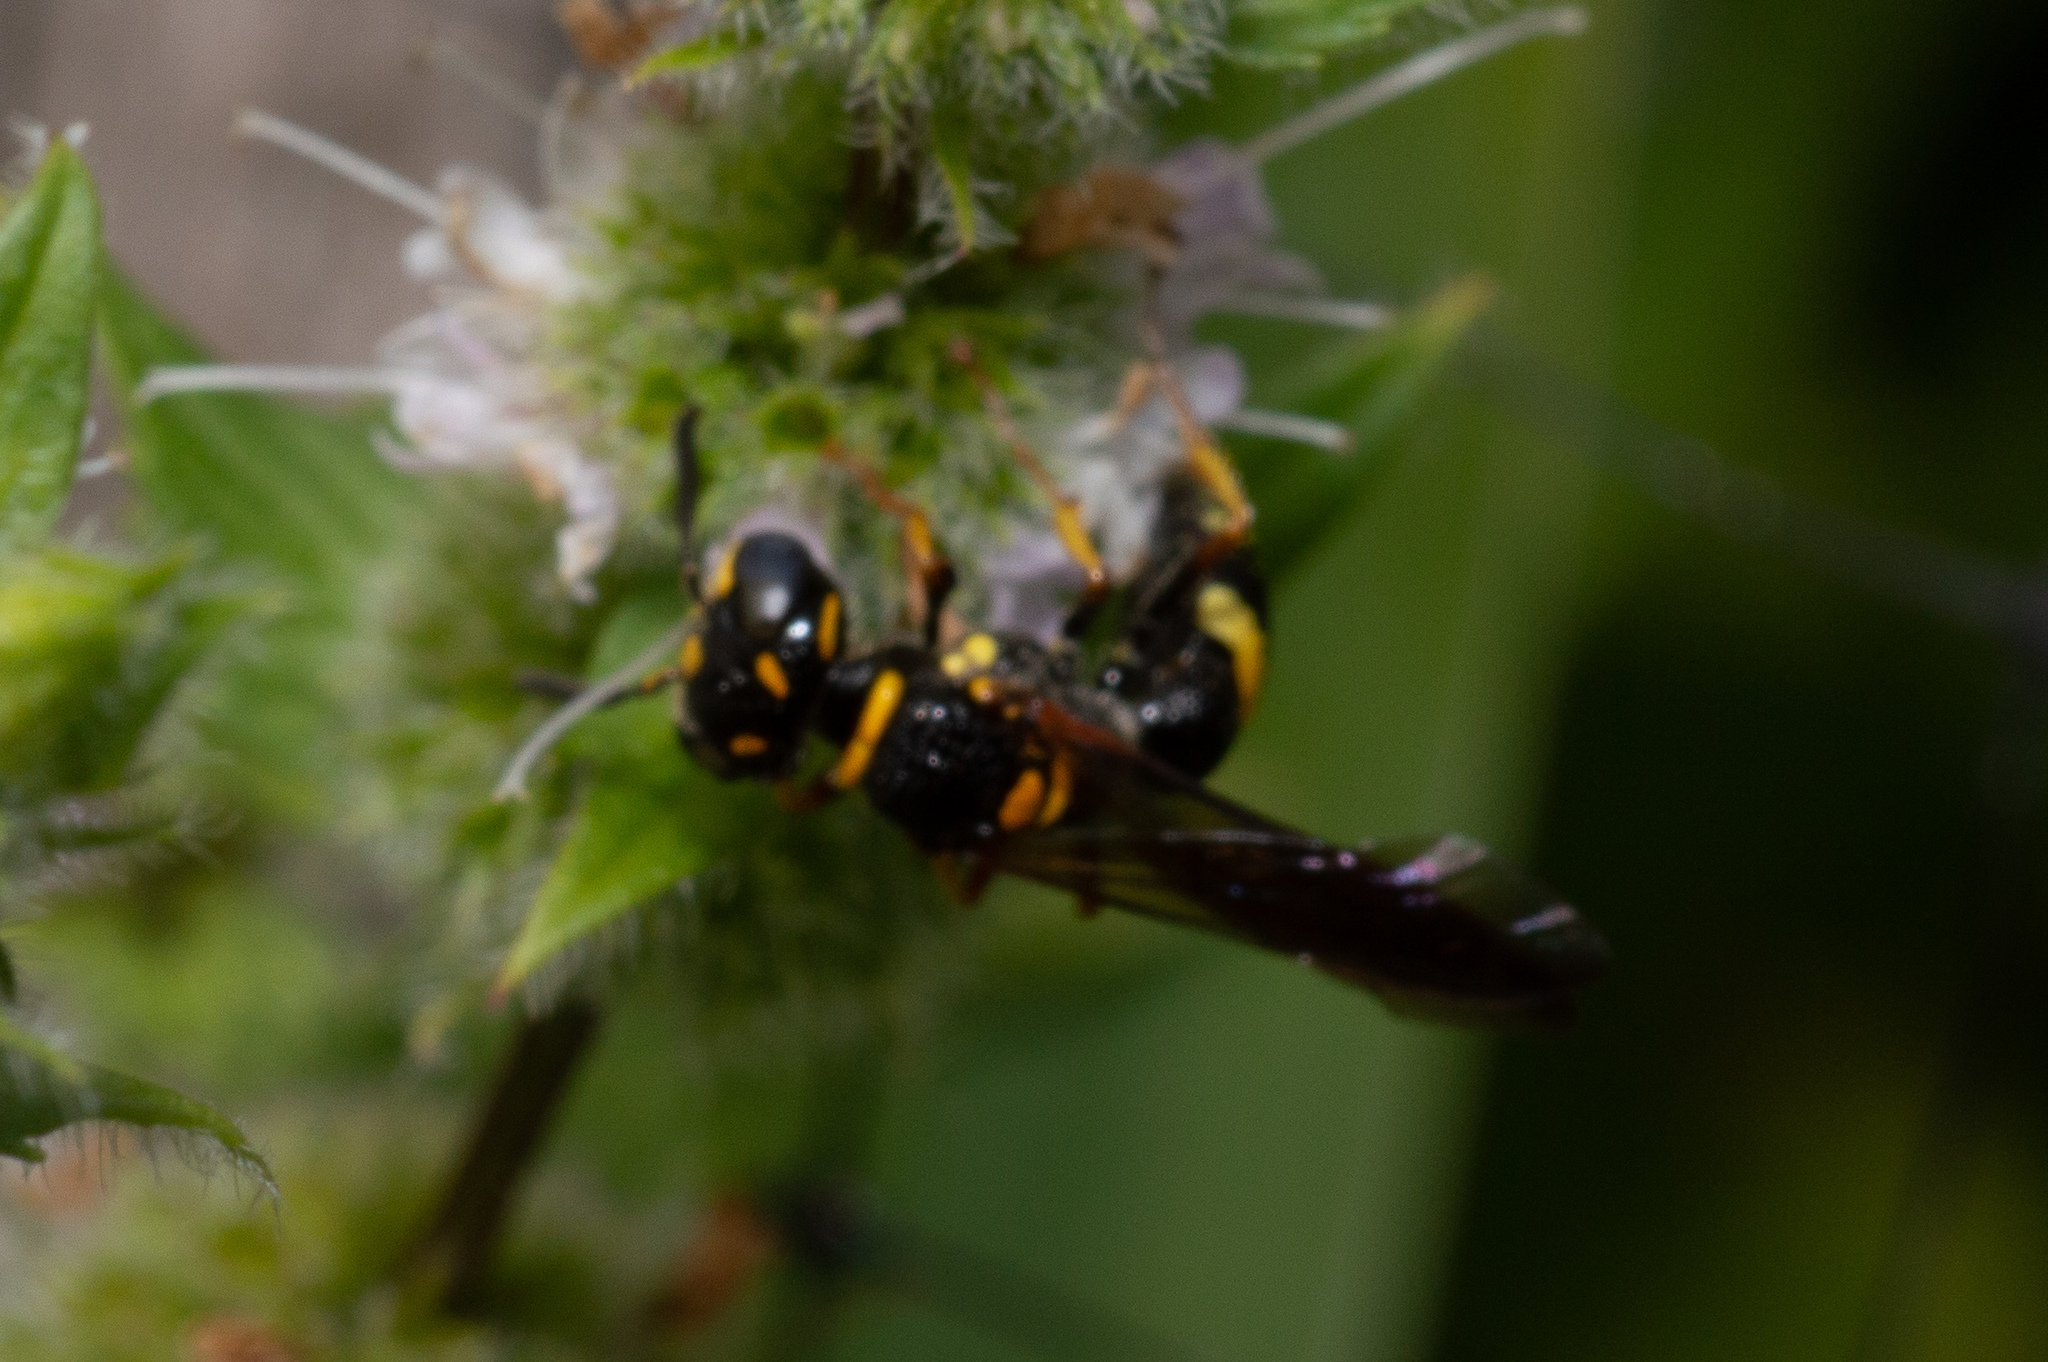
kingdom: Animalia
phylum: Arthropoda
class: Insecta
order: Hymenoptera
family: Crabronidae
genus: Philanthus
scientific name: Philanthus gibbosus
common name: Humped beewolf
